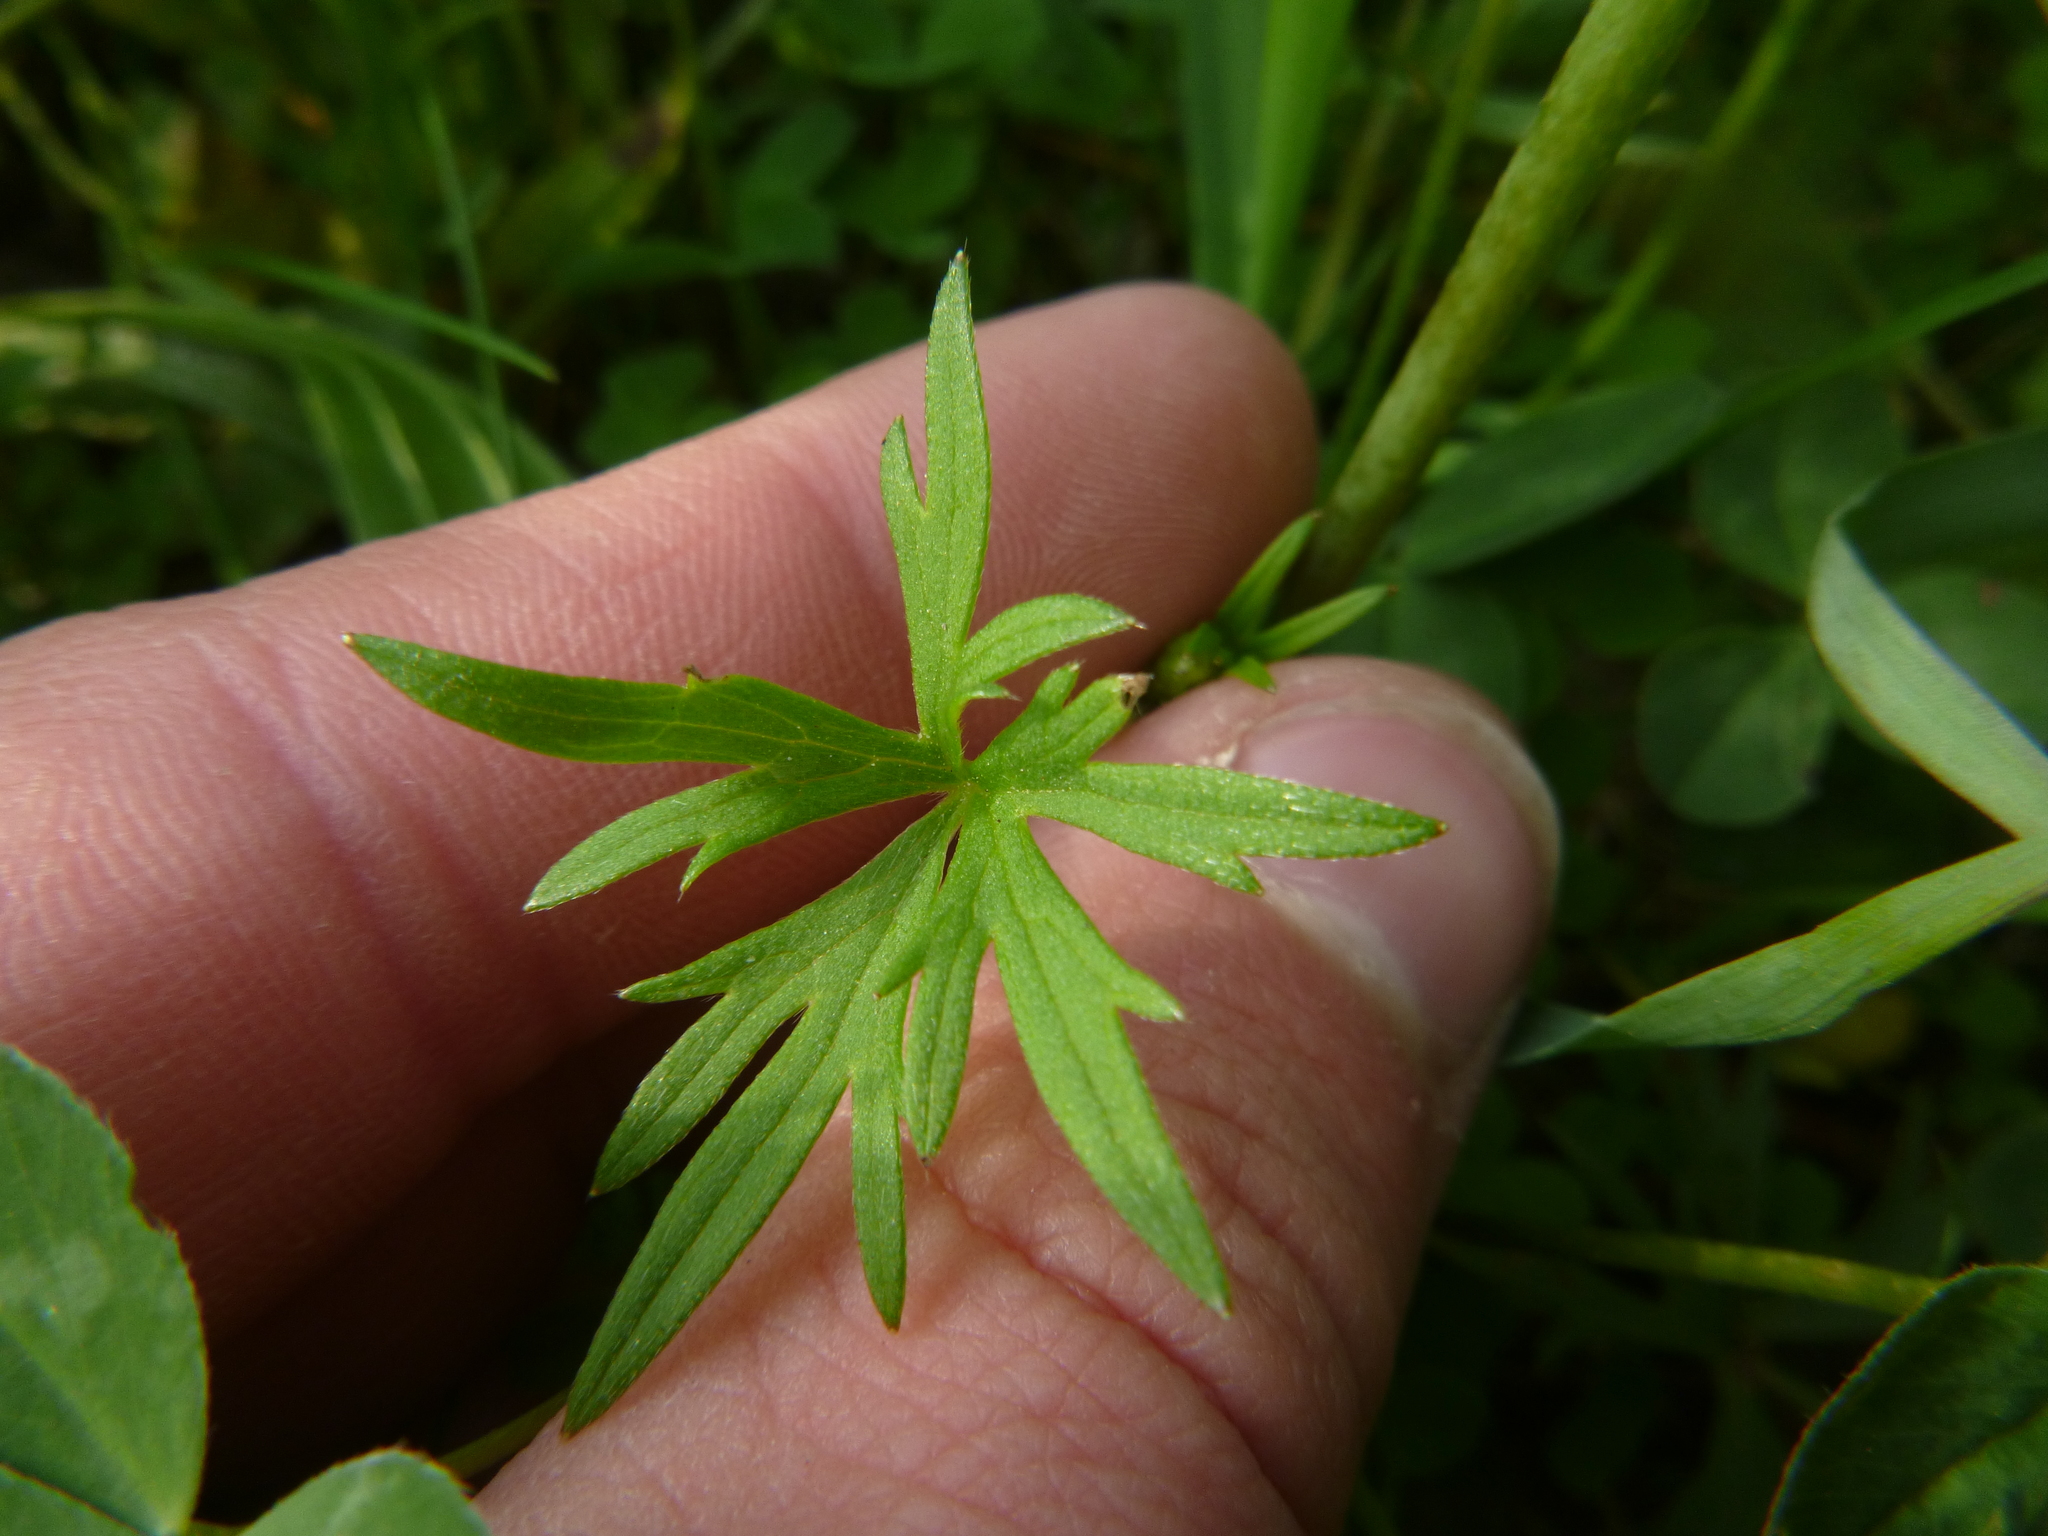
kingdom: Plantae
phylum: Tracheophyta
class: Magnoliopsida
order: Ranunculales
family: Ranunculaceae
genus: Ranunculus
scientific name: Ranunculus acris
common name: Meadow buttercup
